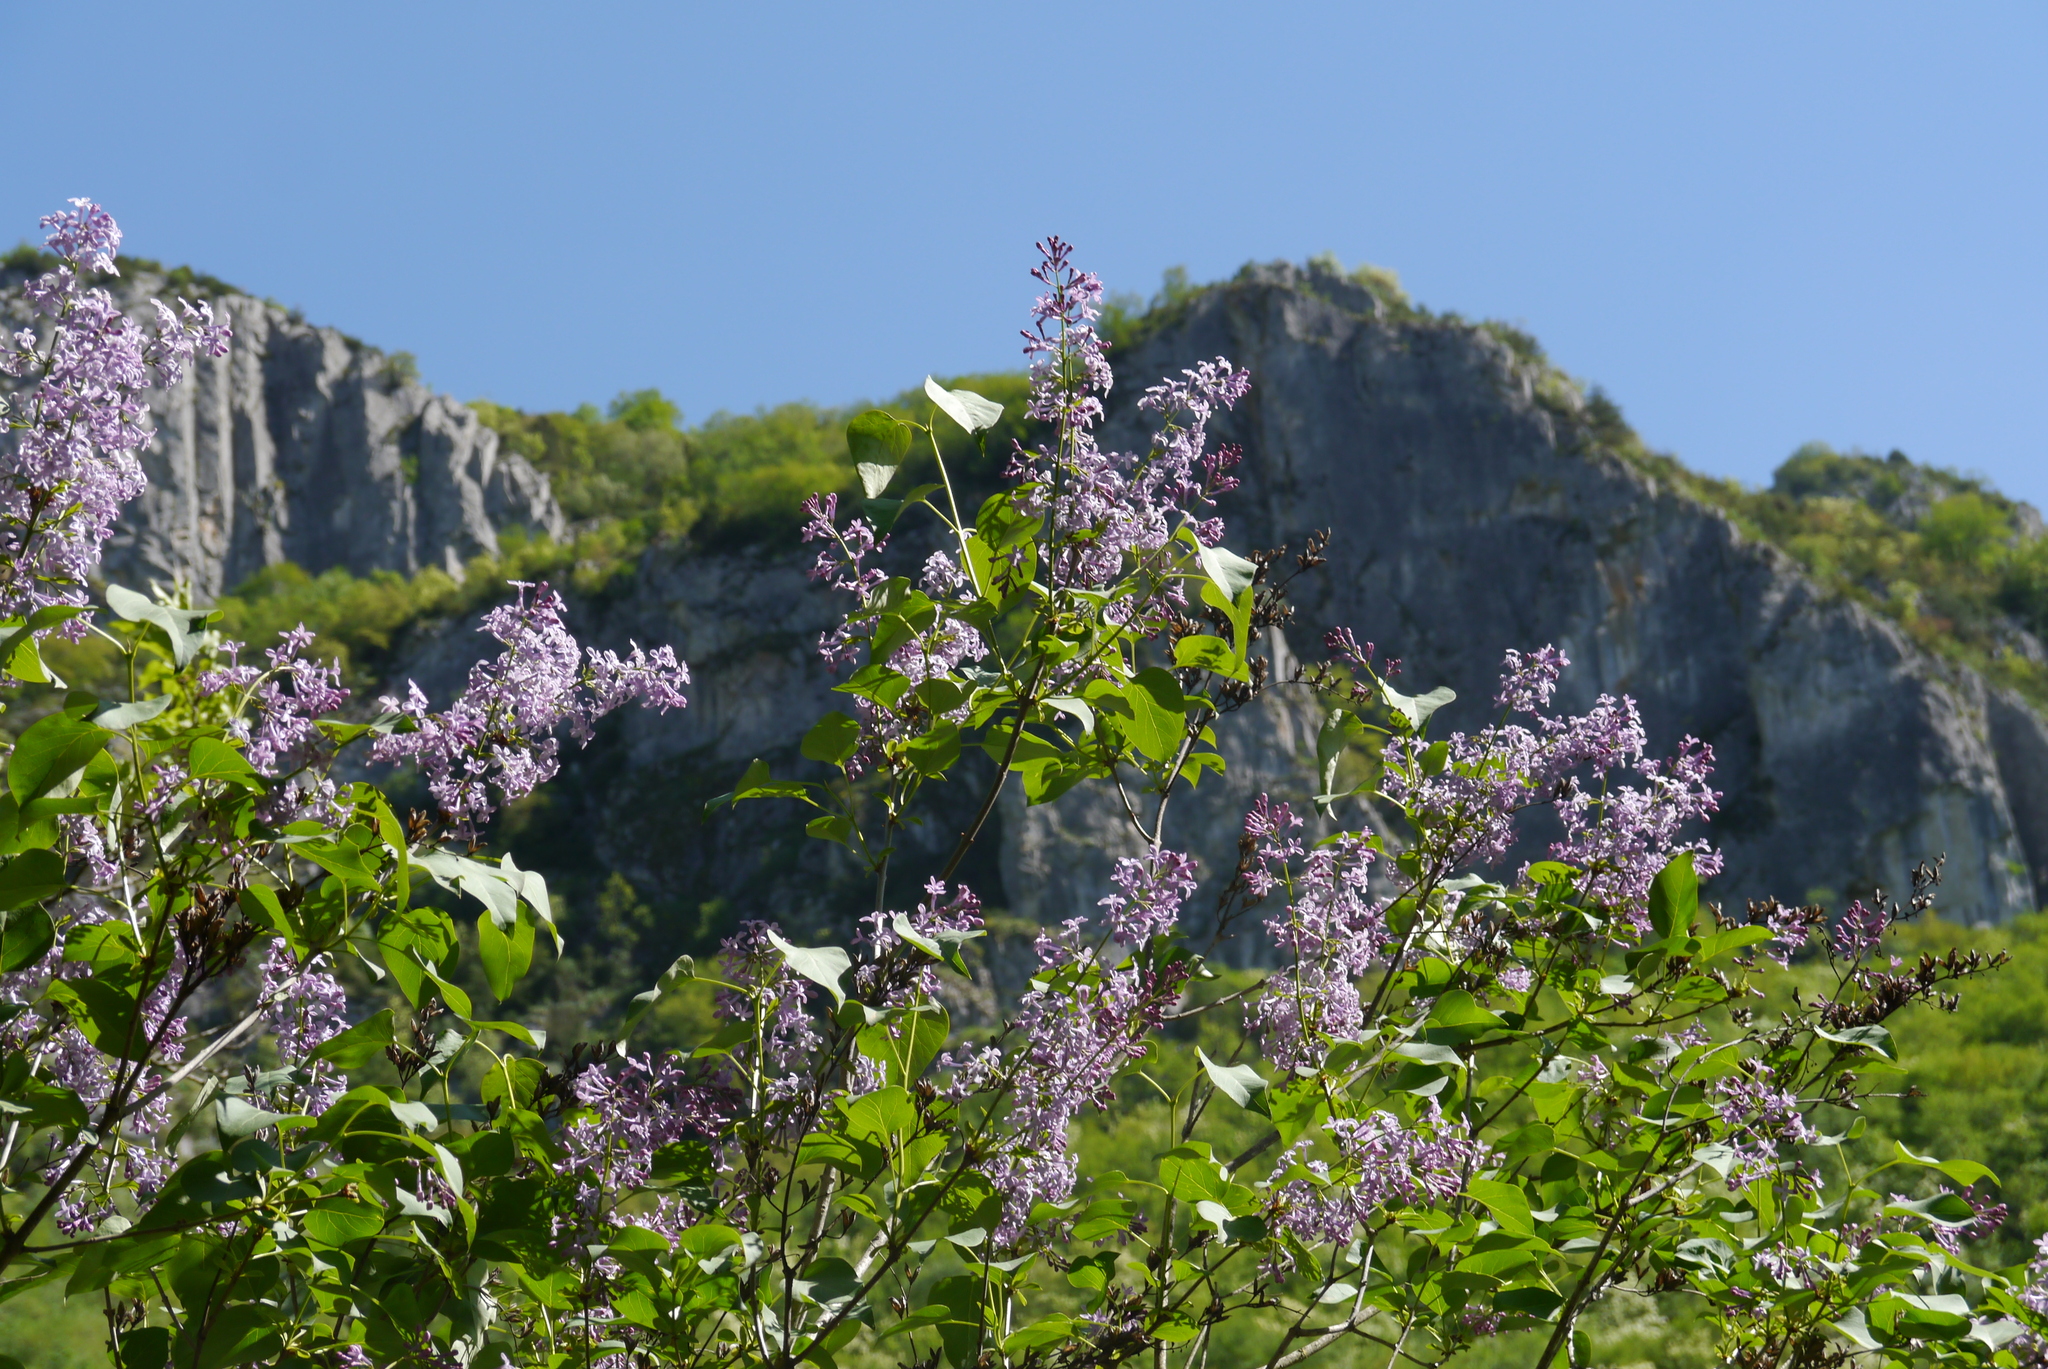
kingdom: Plantae
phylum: Tracheophyta
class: Magnoliopsida
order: Lamiales
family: Oleaceae
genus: Syringa
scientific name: Syringa vulgaris
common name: Common lilac
